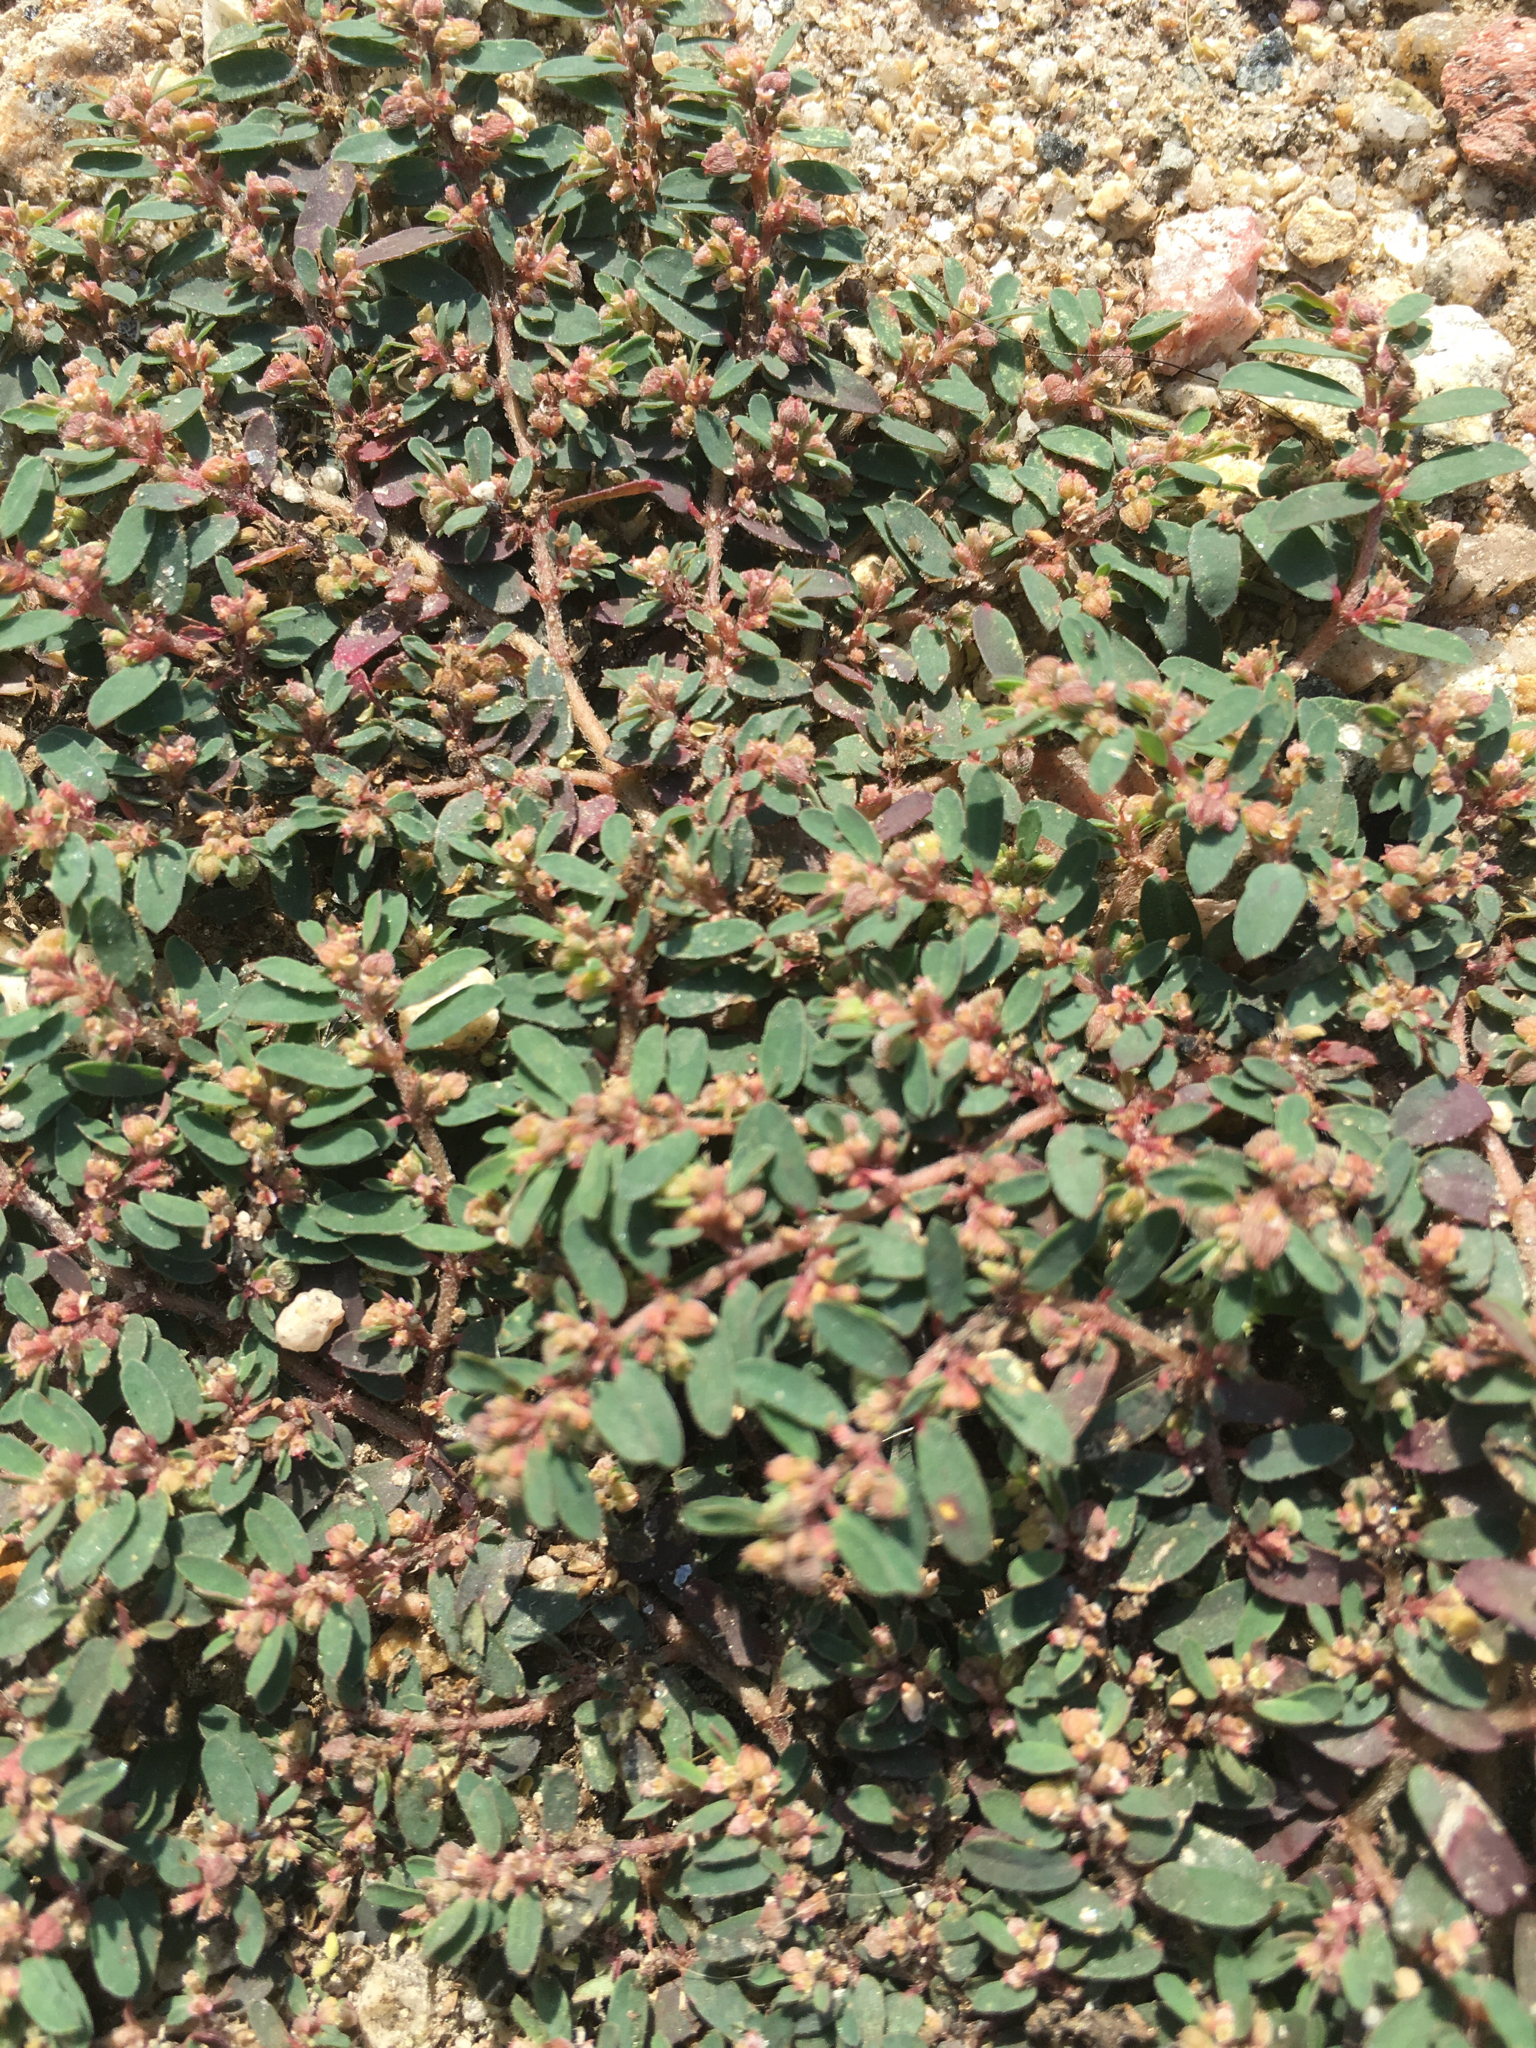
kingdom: Plantae
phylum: Tracheophyta
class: Magnoliopsida
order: Malpighiales
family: Euphorbiaceae
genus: Euphorbia
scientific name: Euphorbia maculata
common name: Spotted spurge
